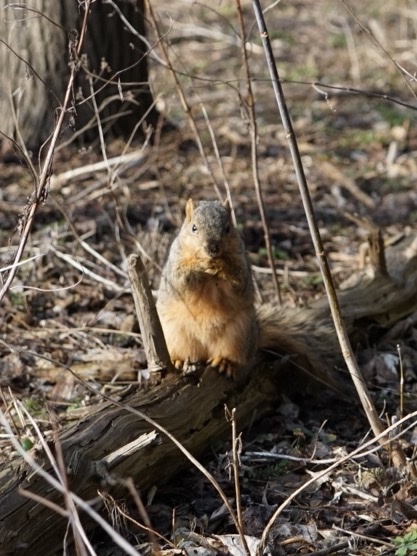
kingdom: Animalia
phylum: Chordata
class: Mammalia
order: Rodentia
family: Sciuridae
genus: Sciurus
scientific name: Sciurus niger
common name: Fox squirrel
